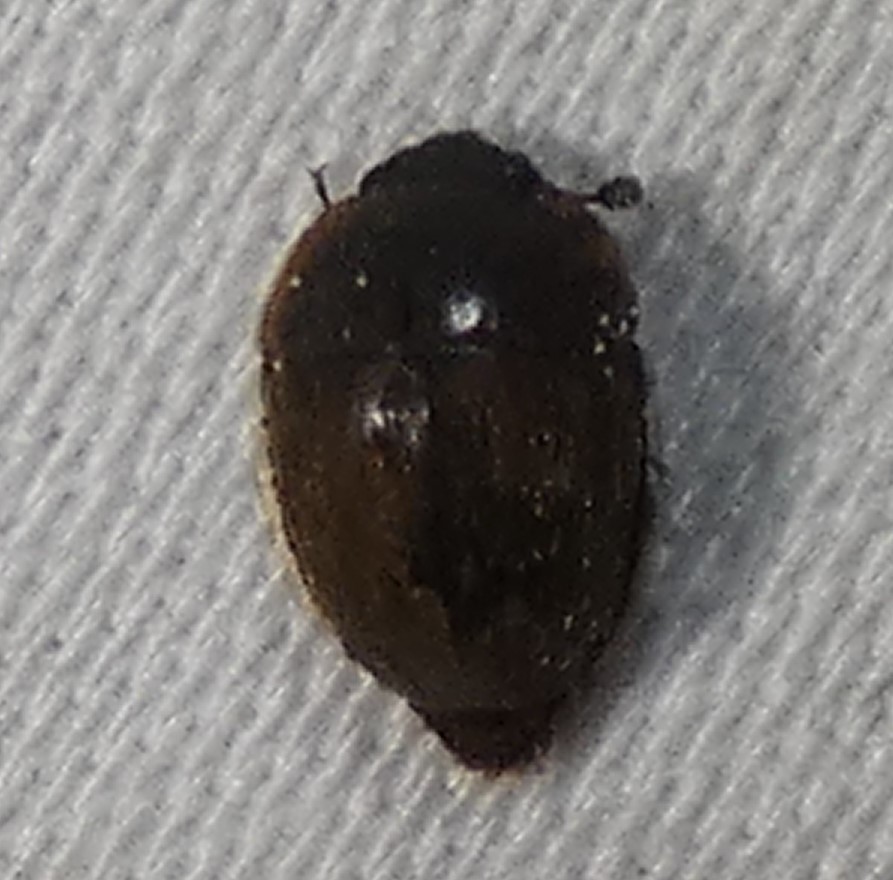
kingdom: Animalia
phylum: Arthropoda
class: Insecta
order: Coleoptera
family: Nitidulidae
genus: Amphicrossus
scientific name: Amphicrossus ciliatus
